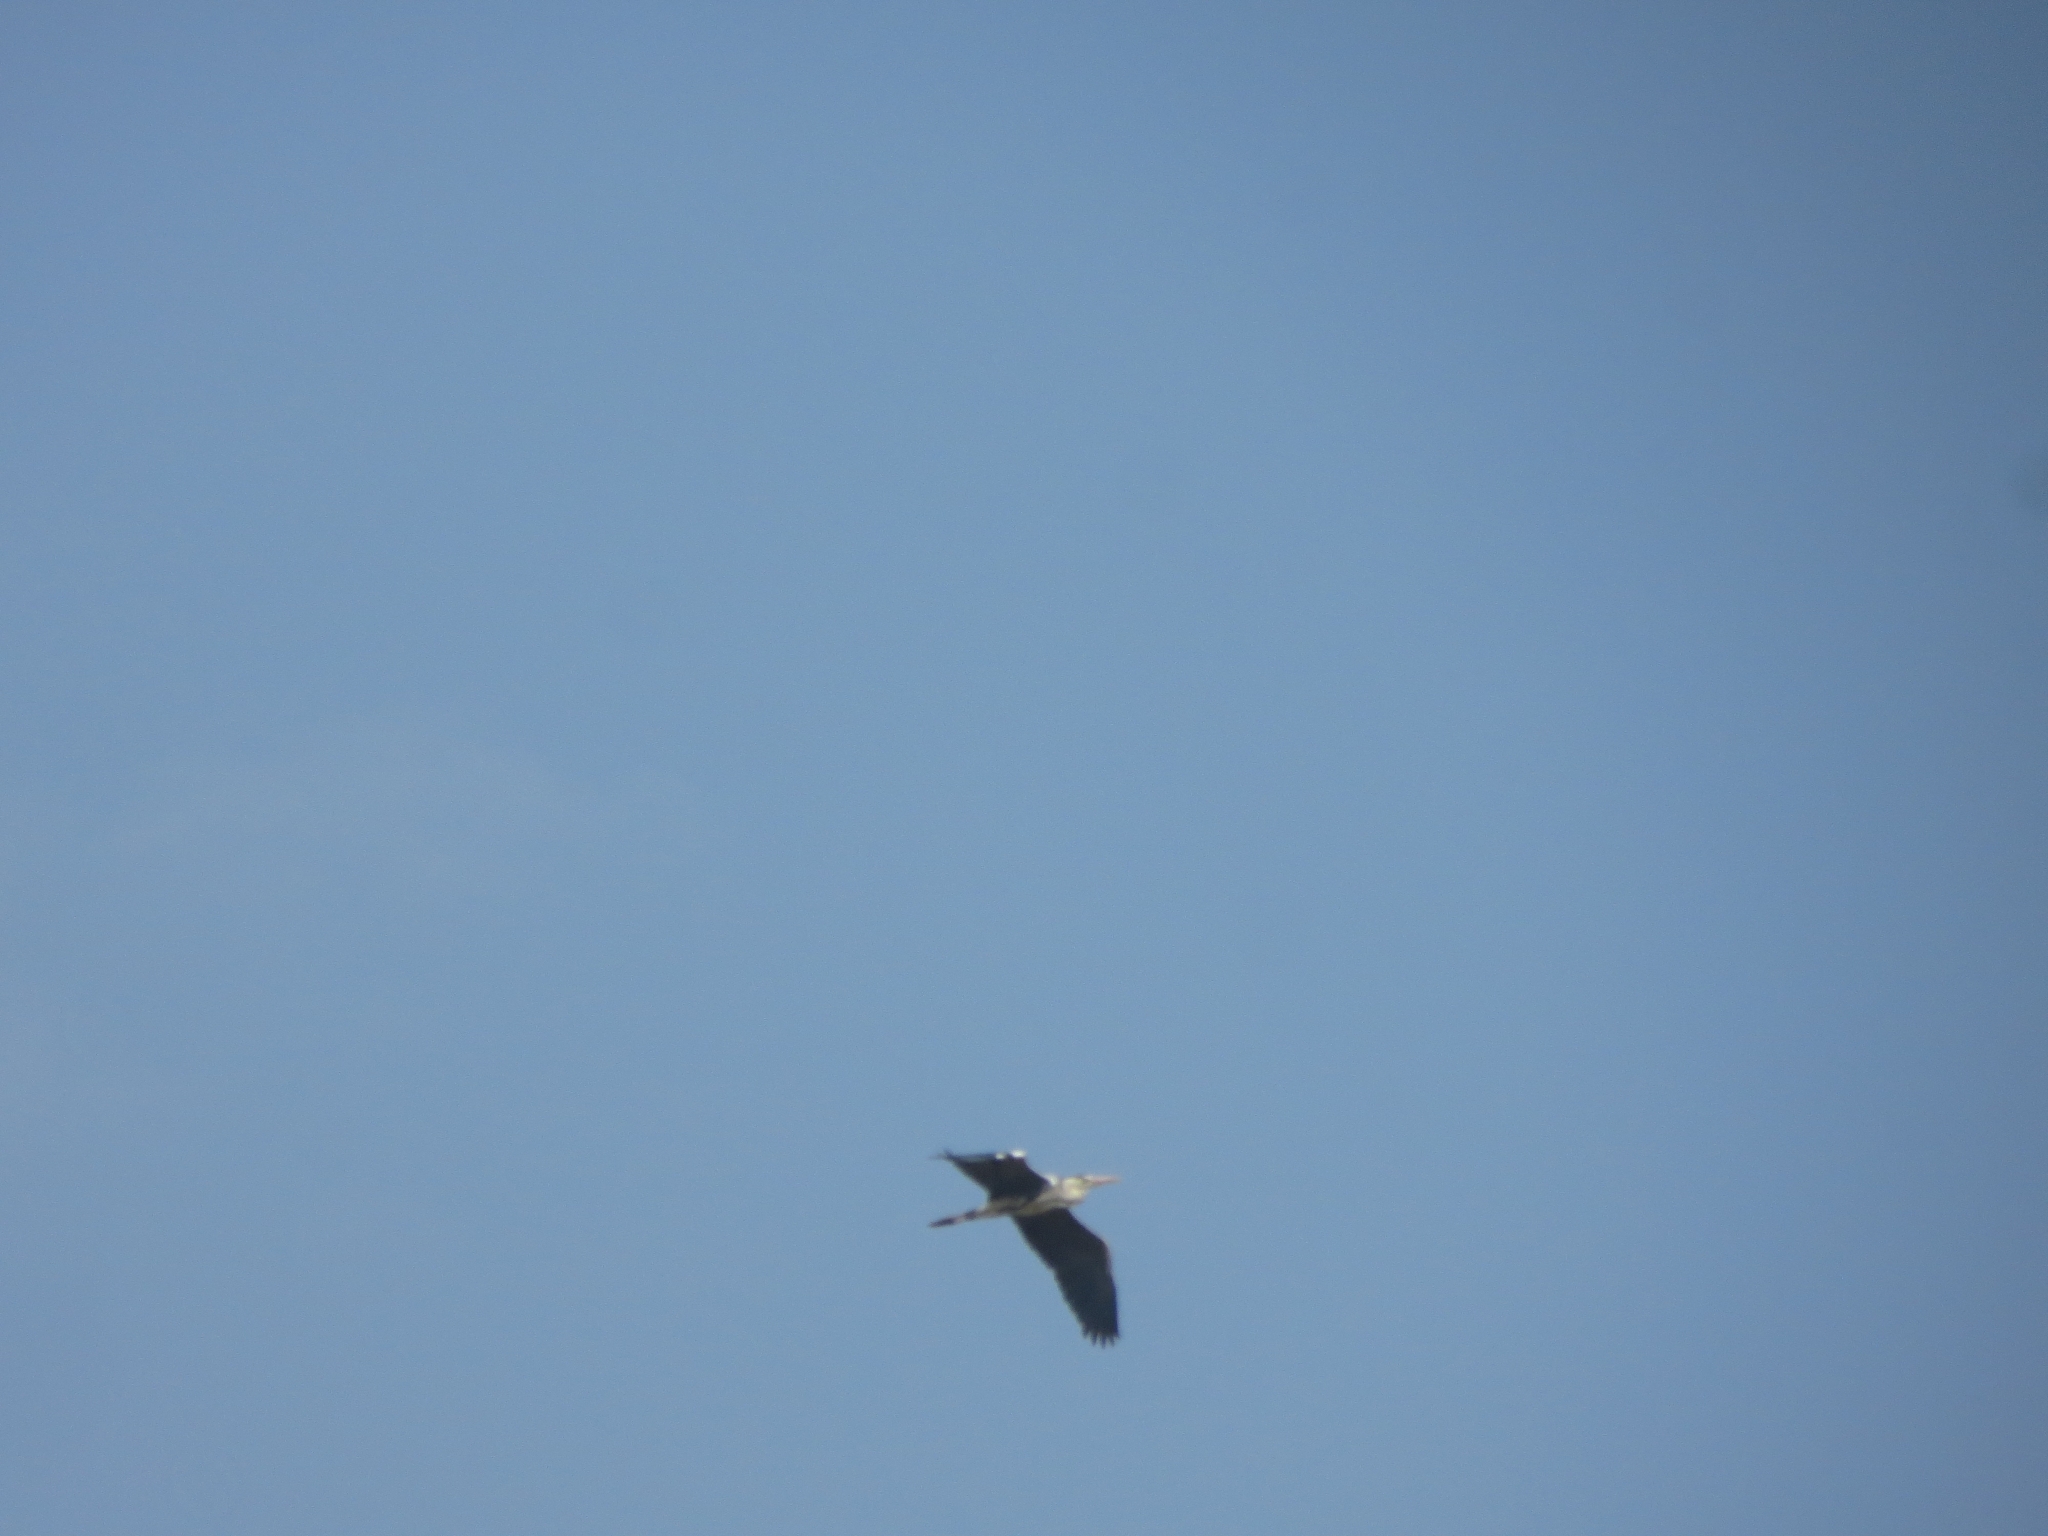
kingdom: Animalia
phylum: Chordata
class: Aves
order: Pelecaniformes
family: Ardeidae
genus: Ardea
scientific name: Ardea cinerea
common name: Grey heron
